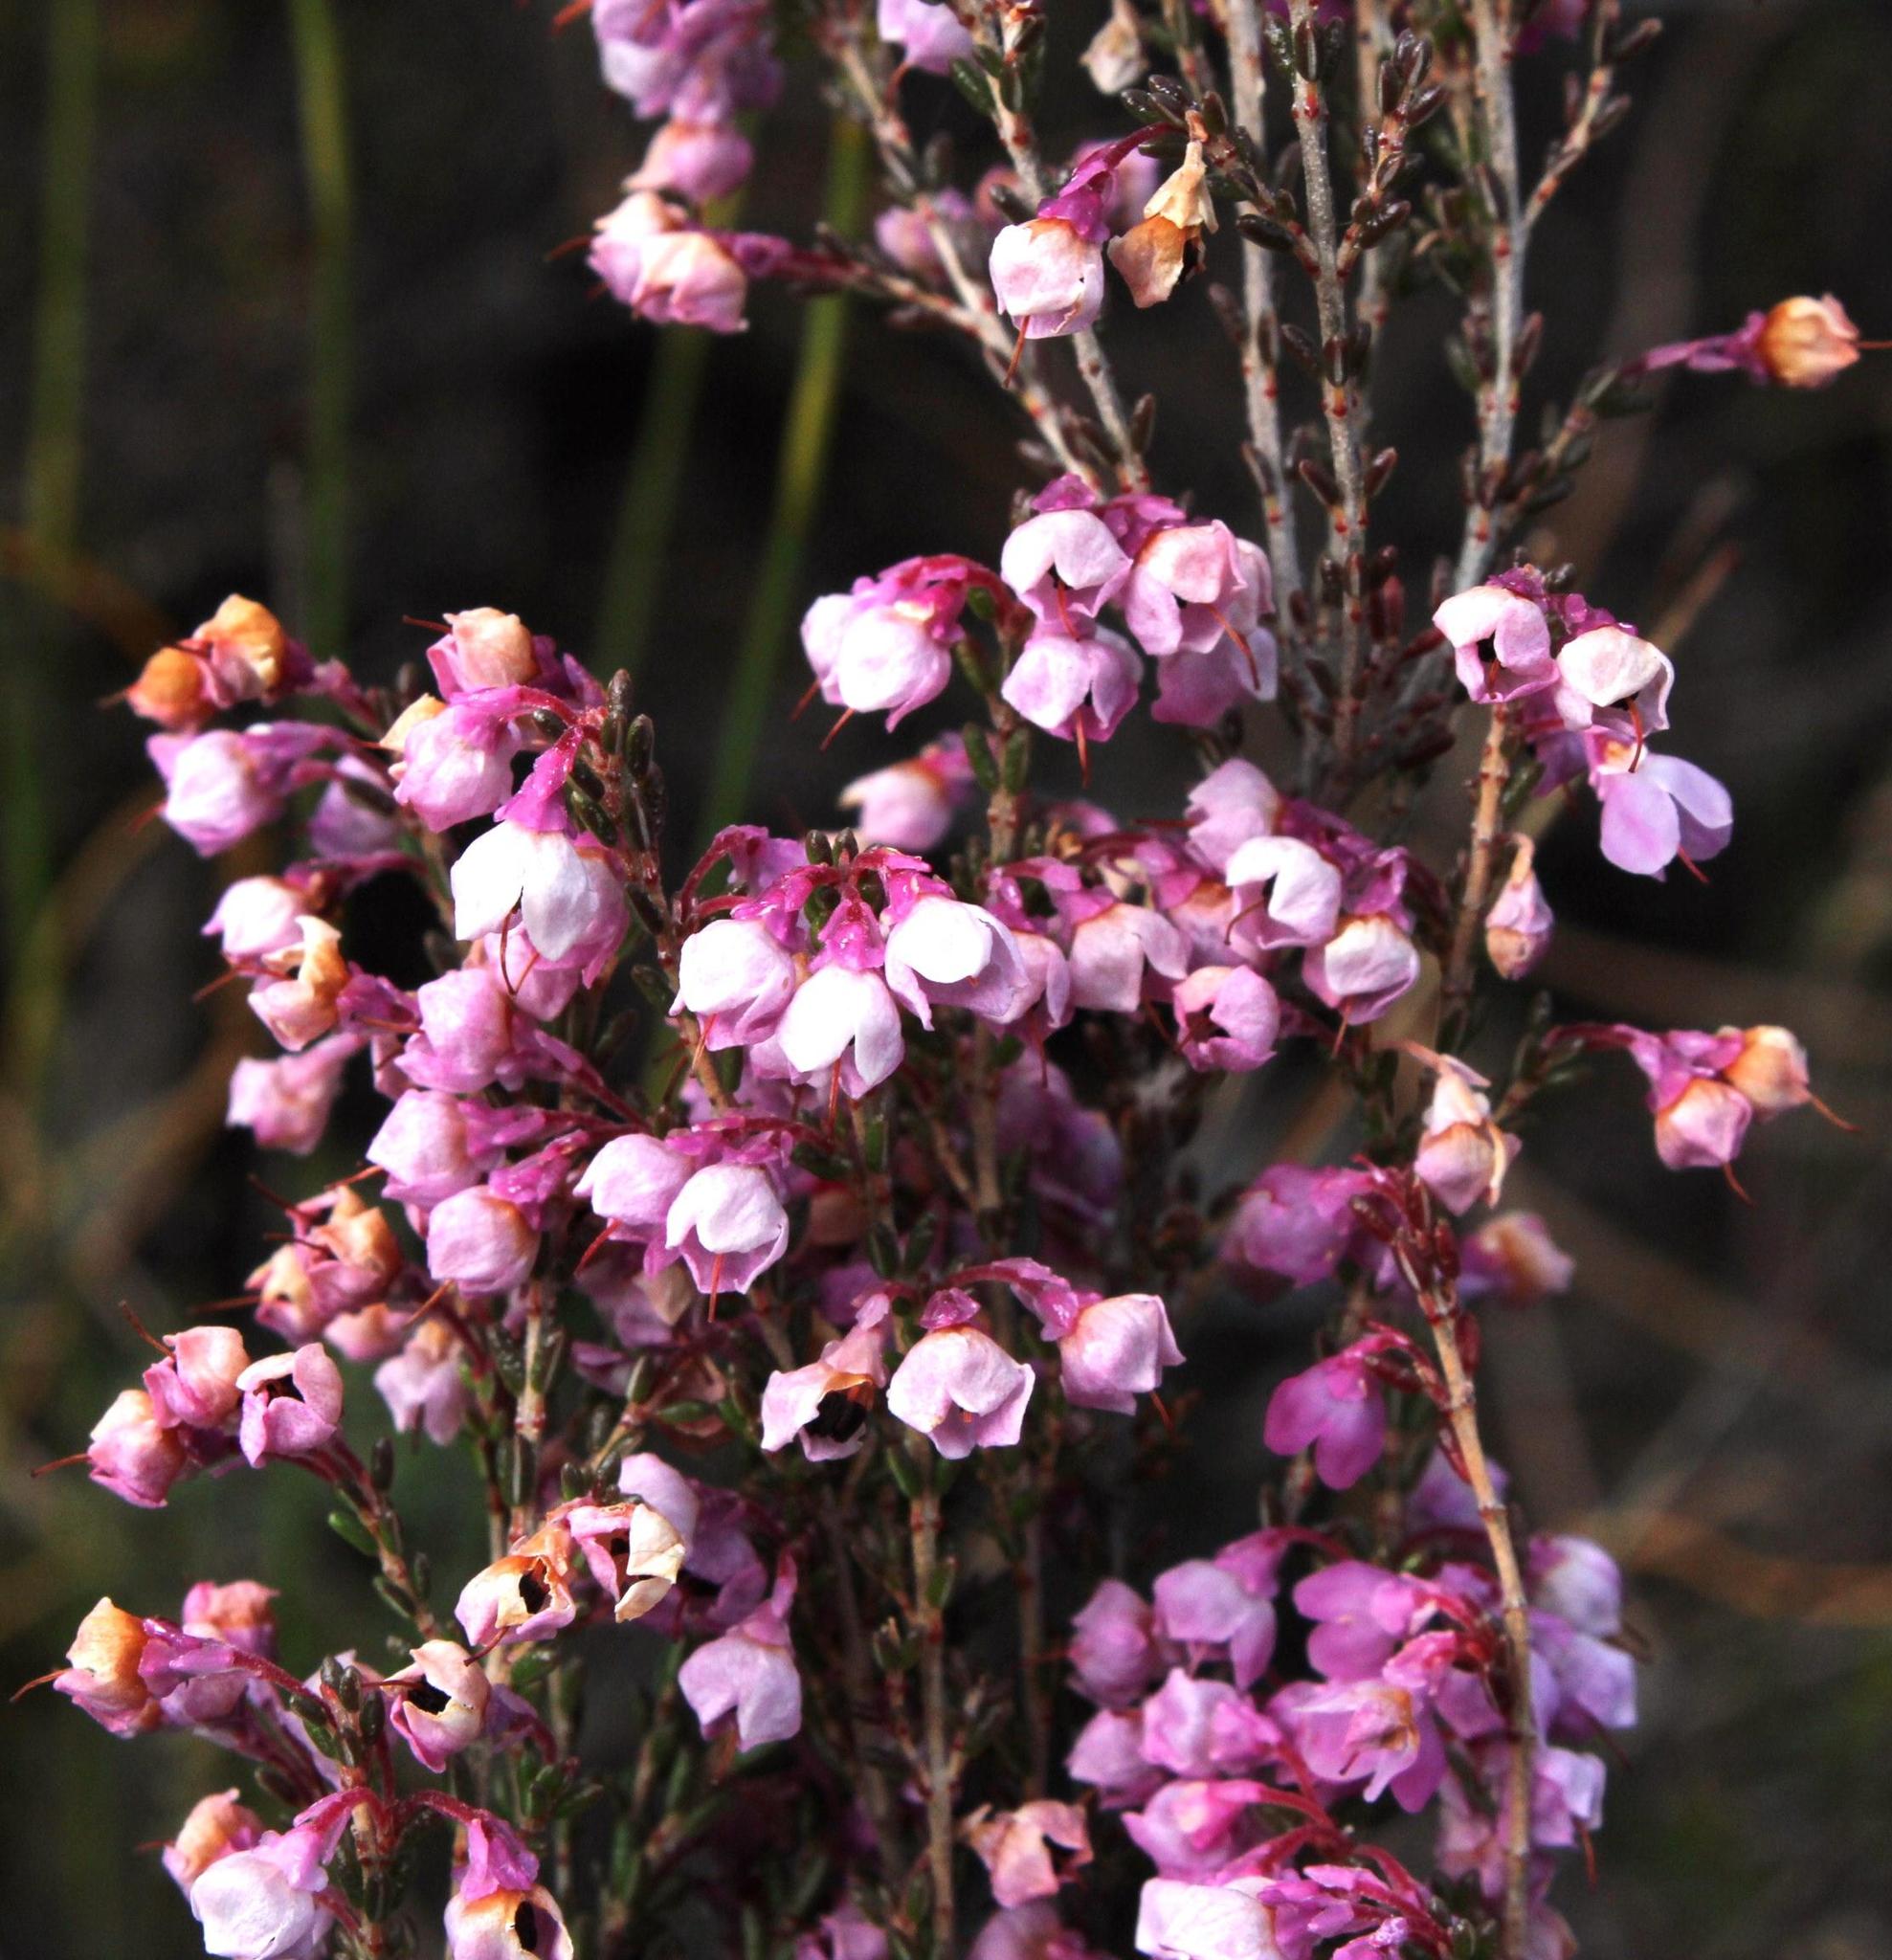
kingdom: Plantae
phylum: Tracheophyta
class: Magnoliopsida
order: Ericales
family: Ericaceae
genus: Erica
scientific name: Erica melanthera
